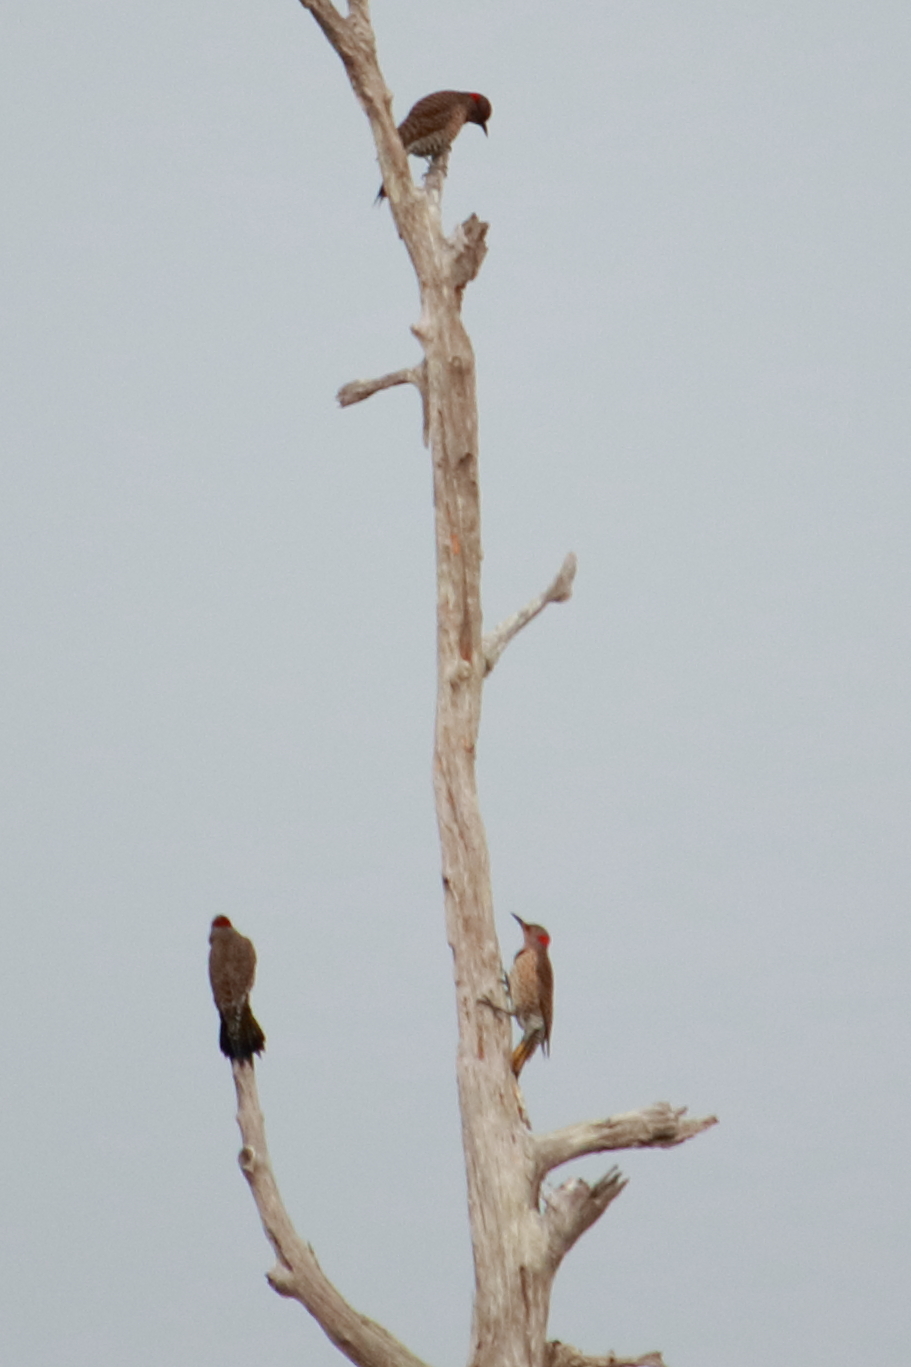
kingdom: Animalia
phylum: Chordata
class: Aves
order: Piciformes
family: Picidae
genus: Colaptes
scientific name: Colaptes auratus
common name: Northern flicker
